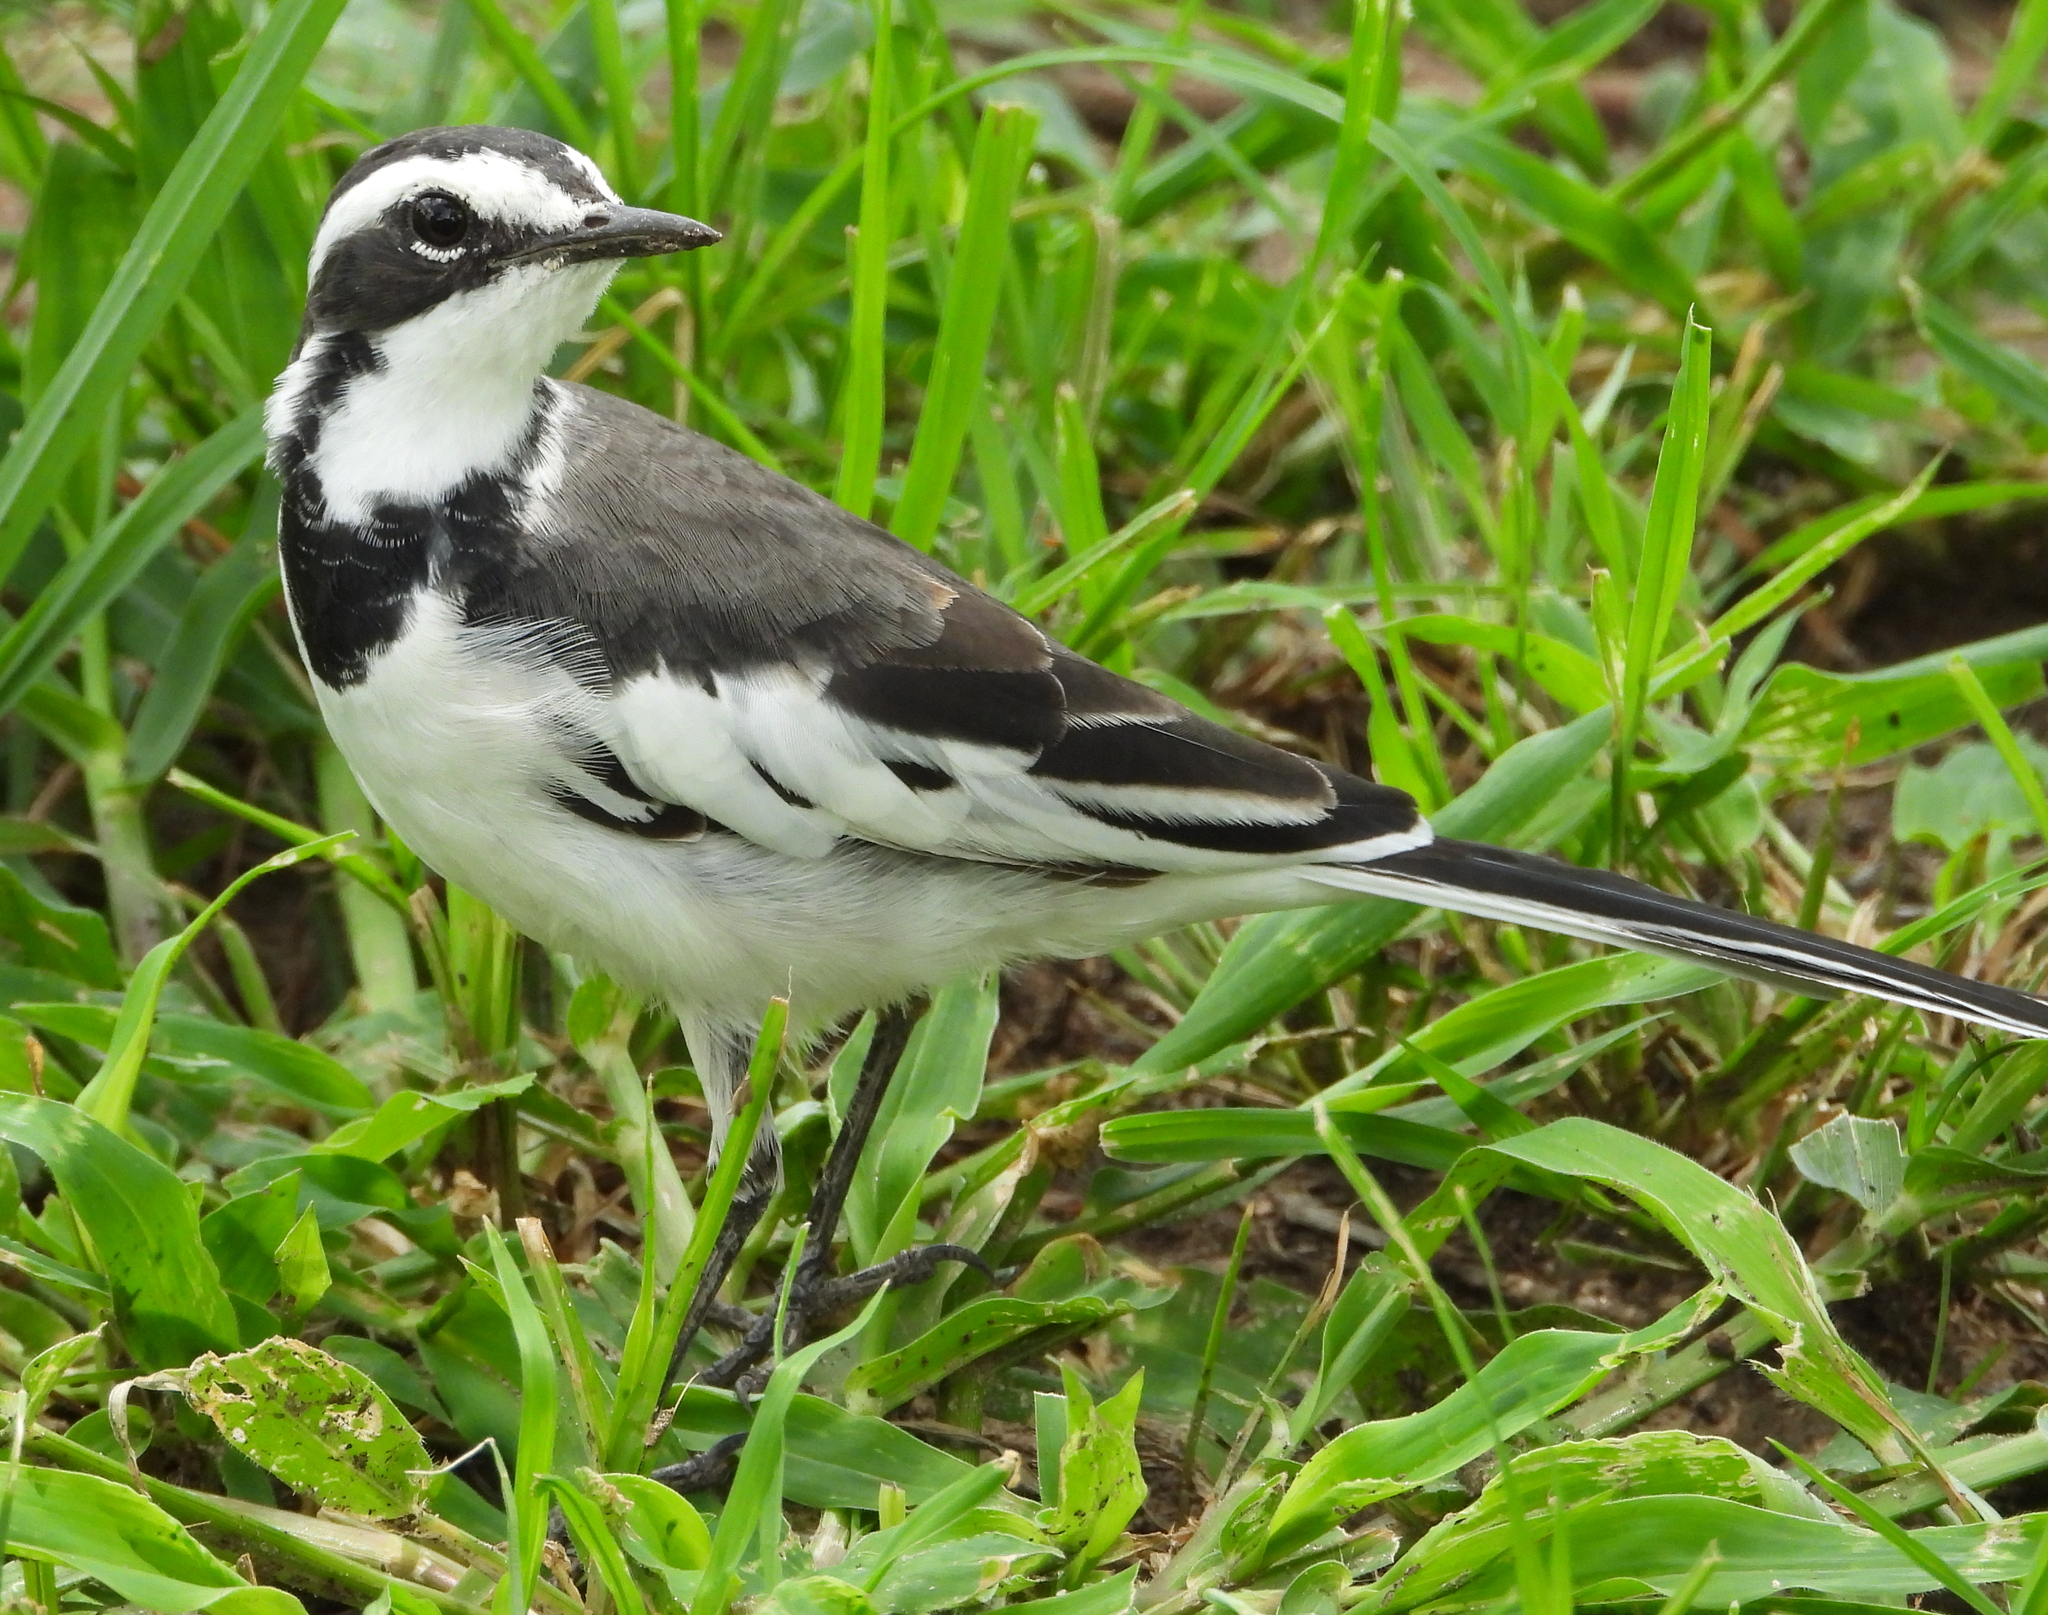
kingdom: Animalia
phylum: Chordata
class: Aves
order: Passeriformes
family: Motacillidae
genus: Motacilla
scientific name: Motacilla aguimp
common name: African pied wagtail
